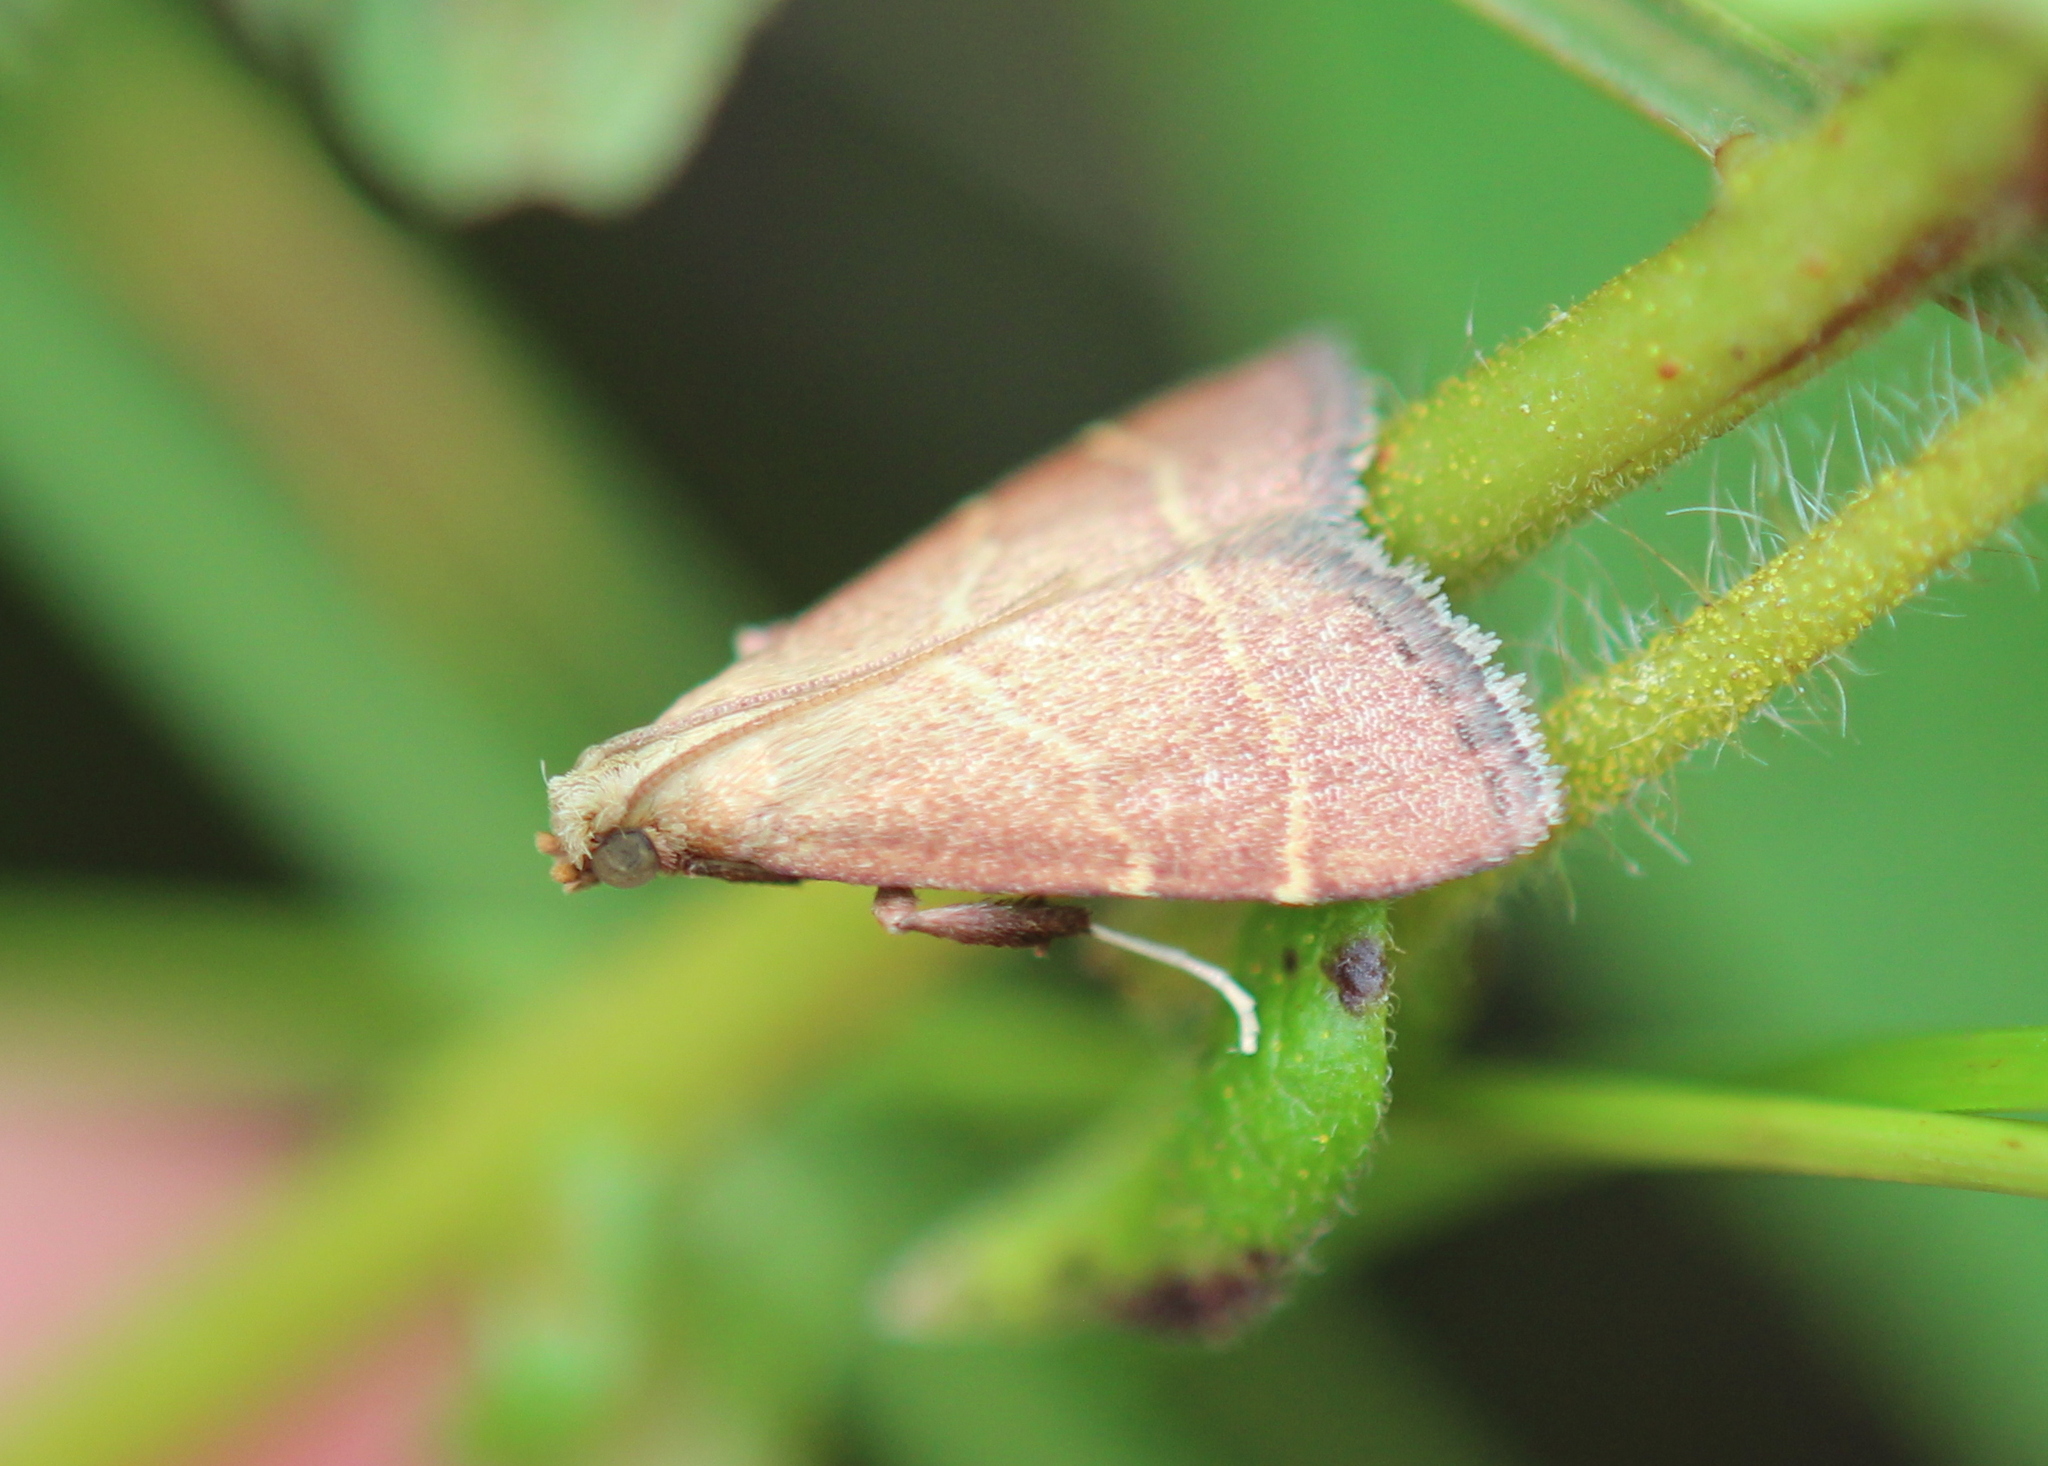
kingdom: Animalia
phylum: Arthropoda
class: Insecta
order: Lepidoptera
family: Pyralidae
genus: Arta
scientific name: Arta statalis
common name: Posturing arta moth
